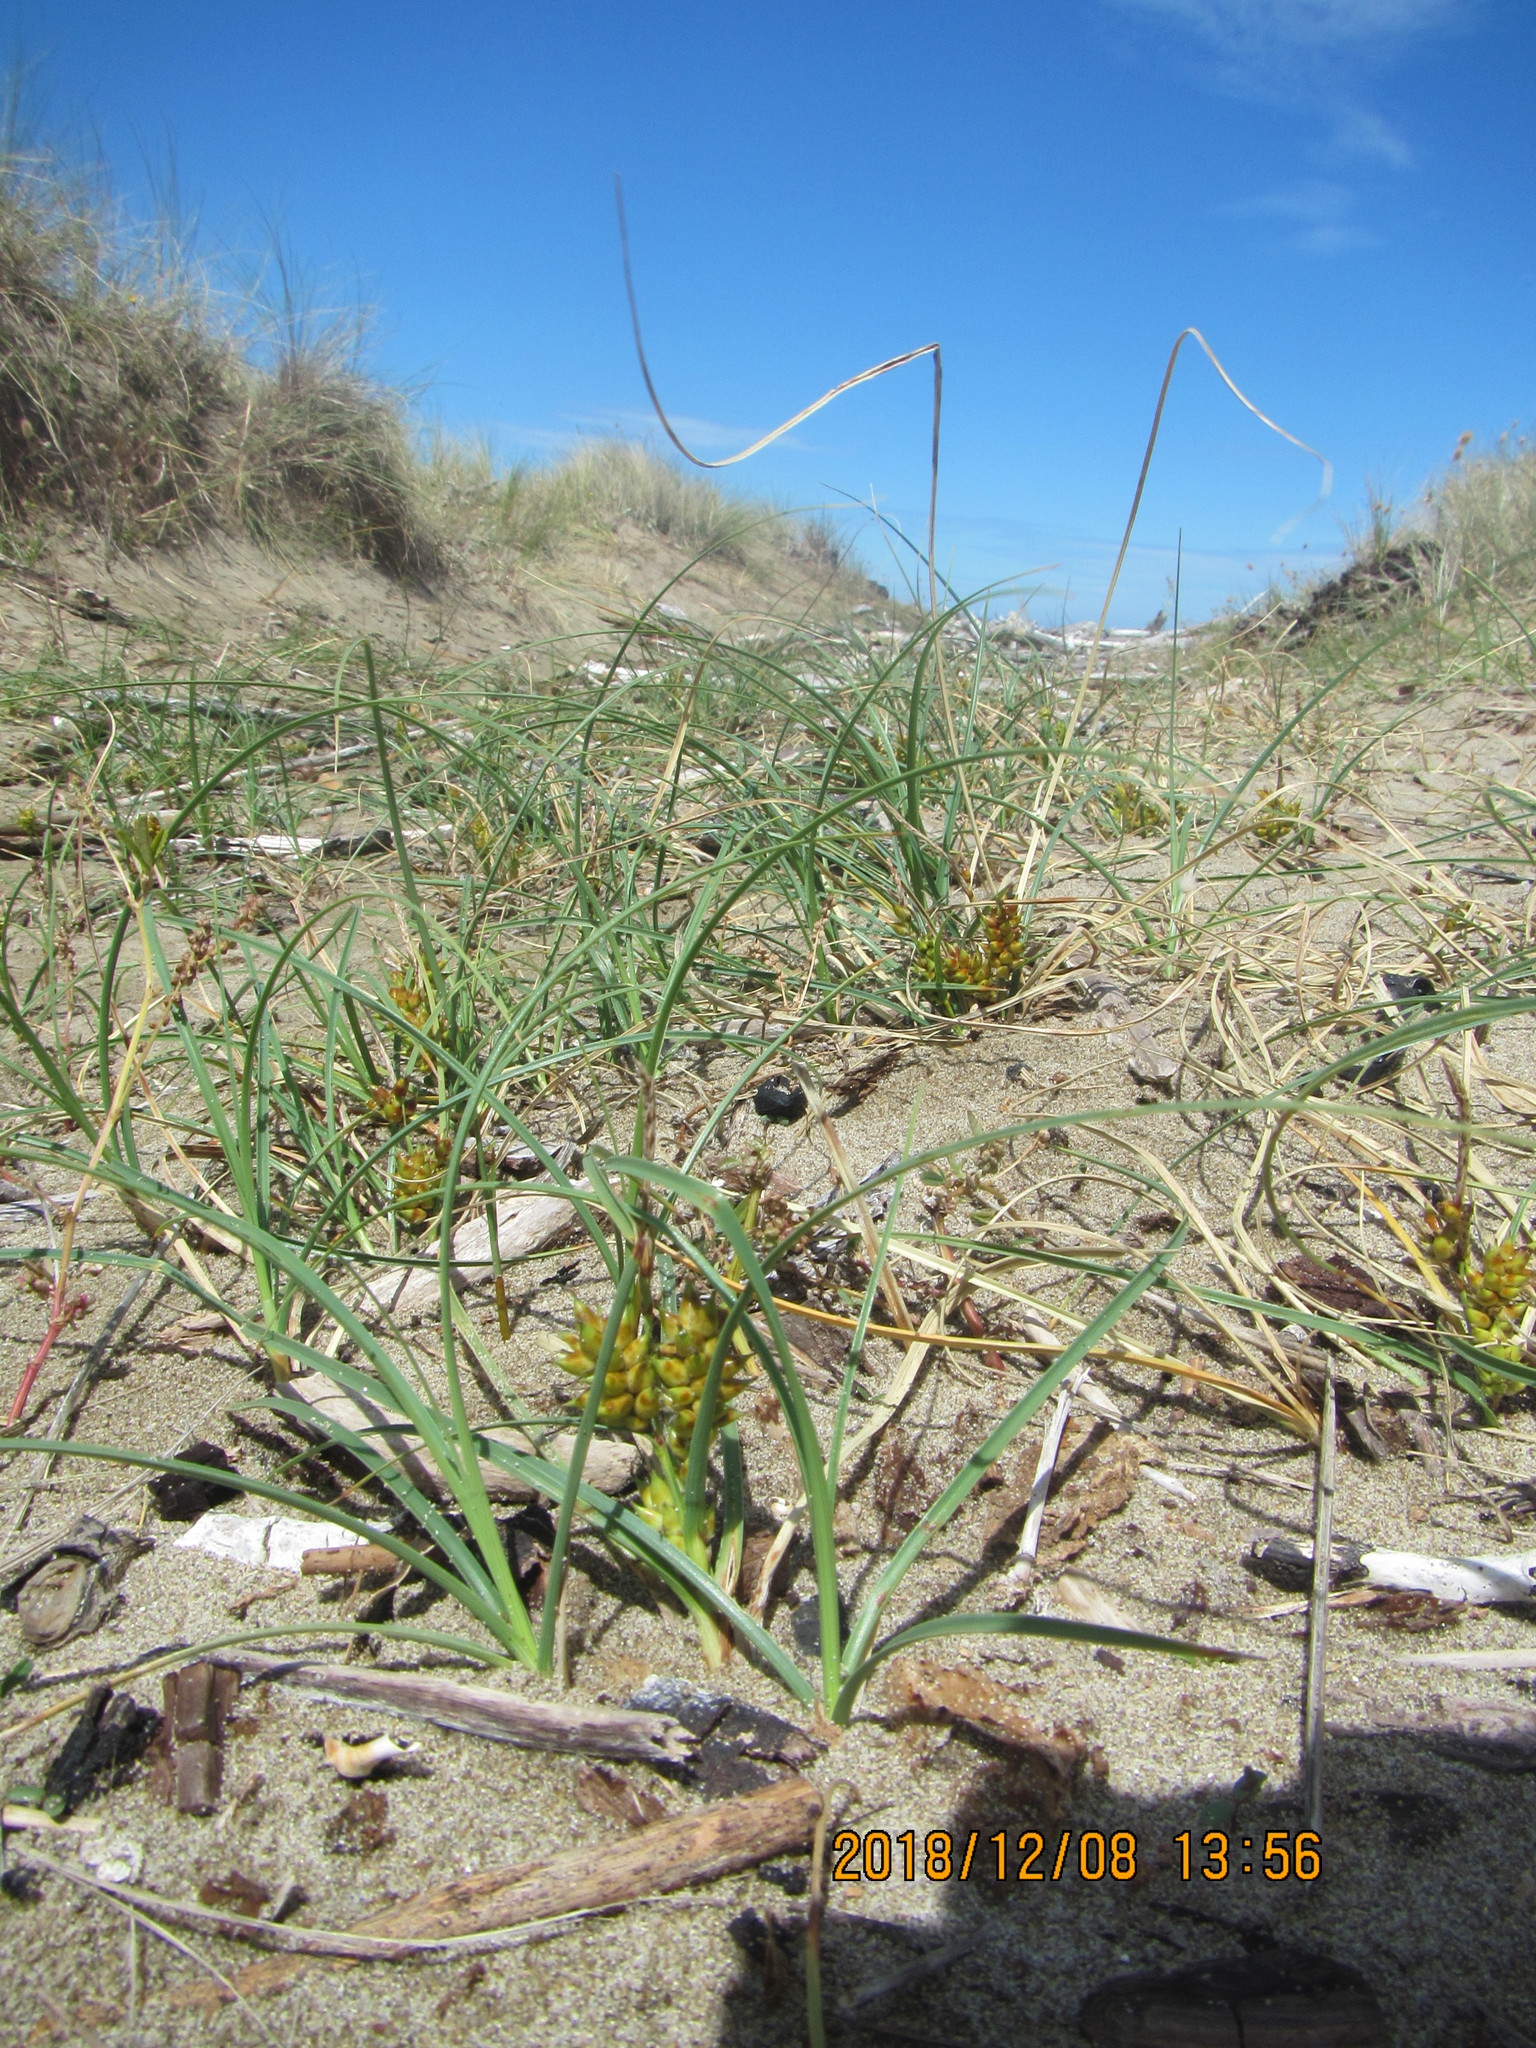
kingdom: Plantae
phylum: Tracheophyta
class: Liliopsida
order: Poales
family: Cyperaceae
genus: Carex
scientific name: Carex pumila
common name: Dwarf sedge
